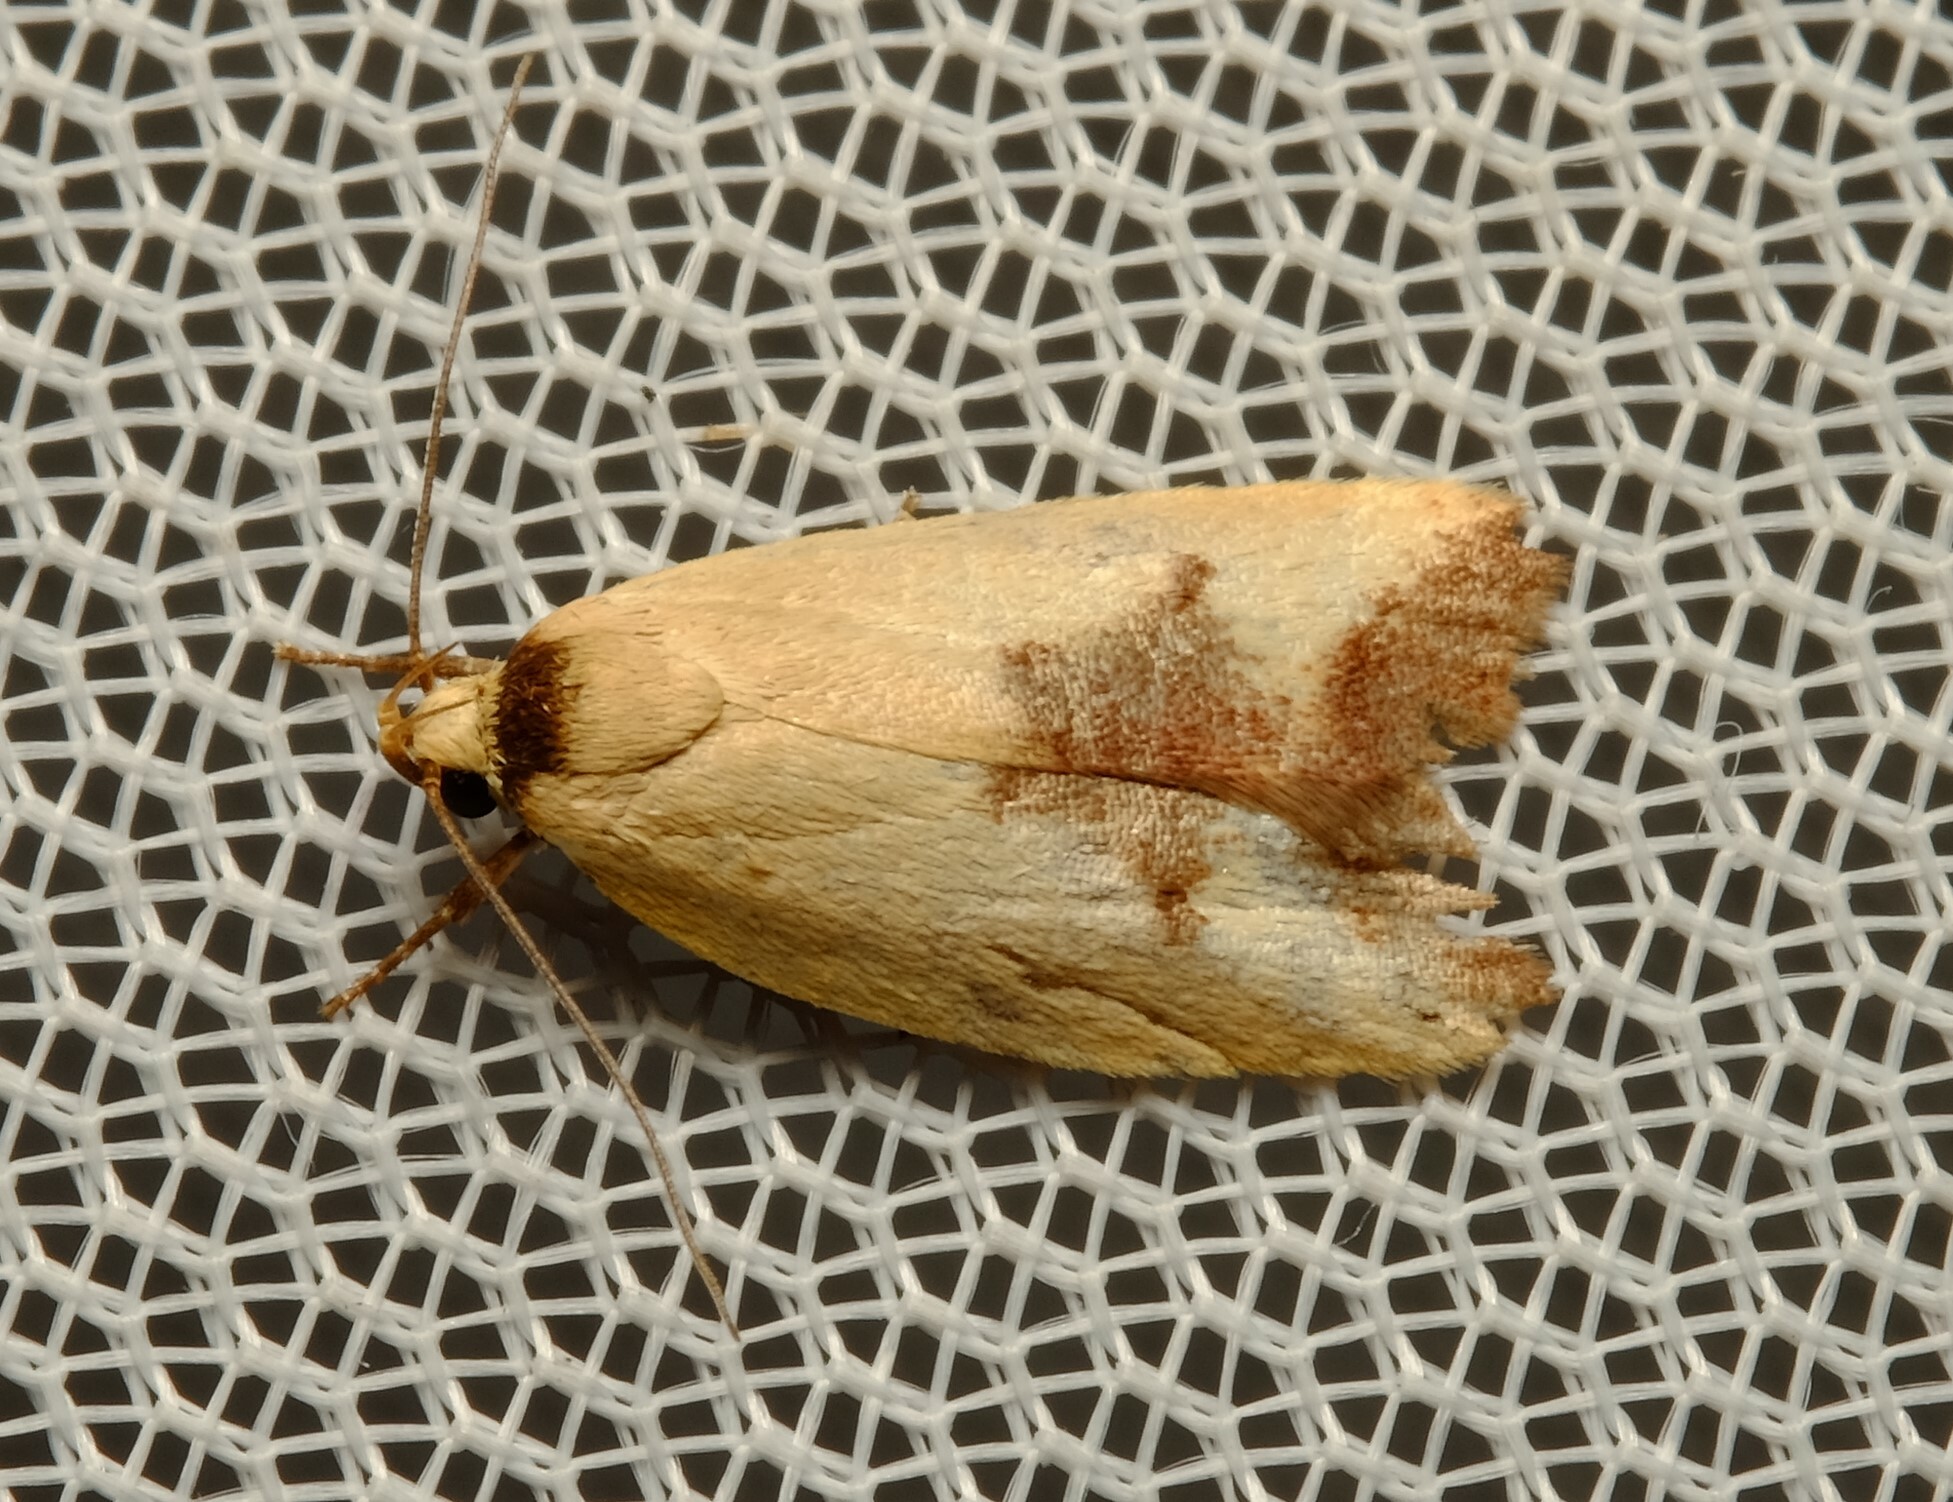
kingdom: Animalia
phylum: Arthropoda
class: Insecta
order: Lepidoptera
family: Oecophoridae
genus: Ageletha
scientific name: Ageletha hemiteles
